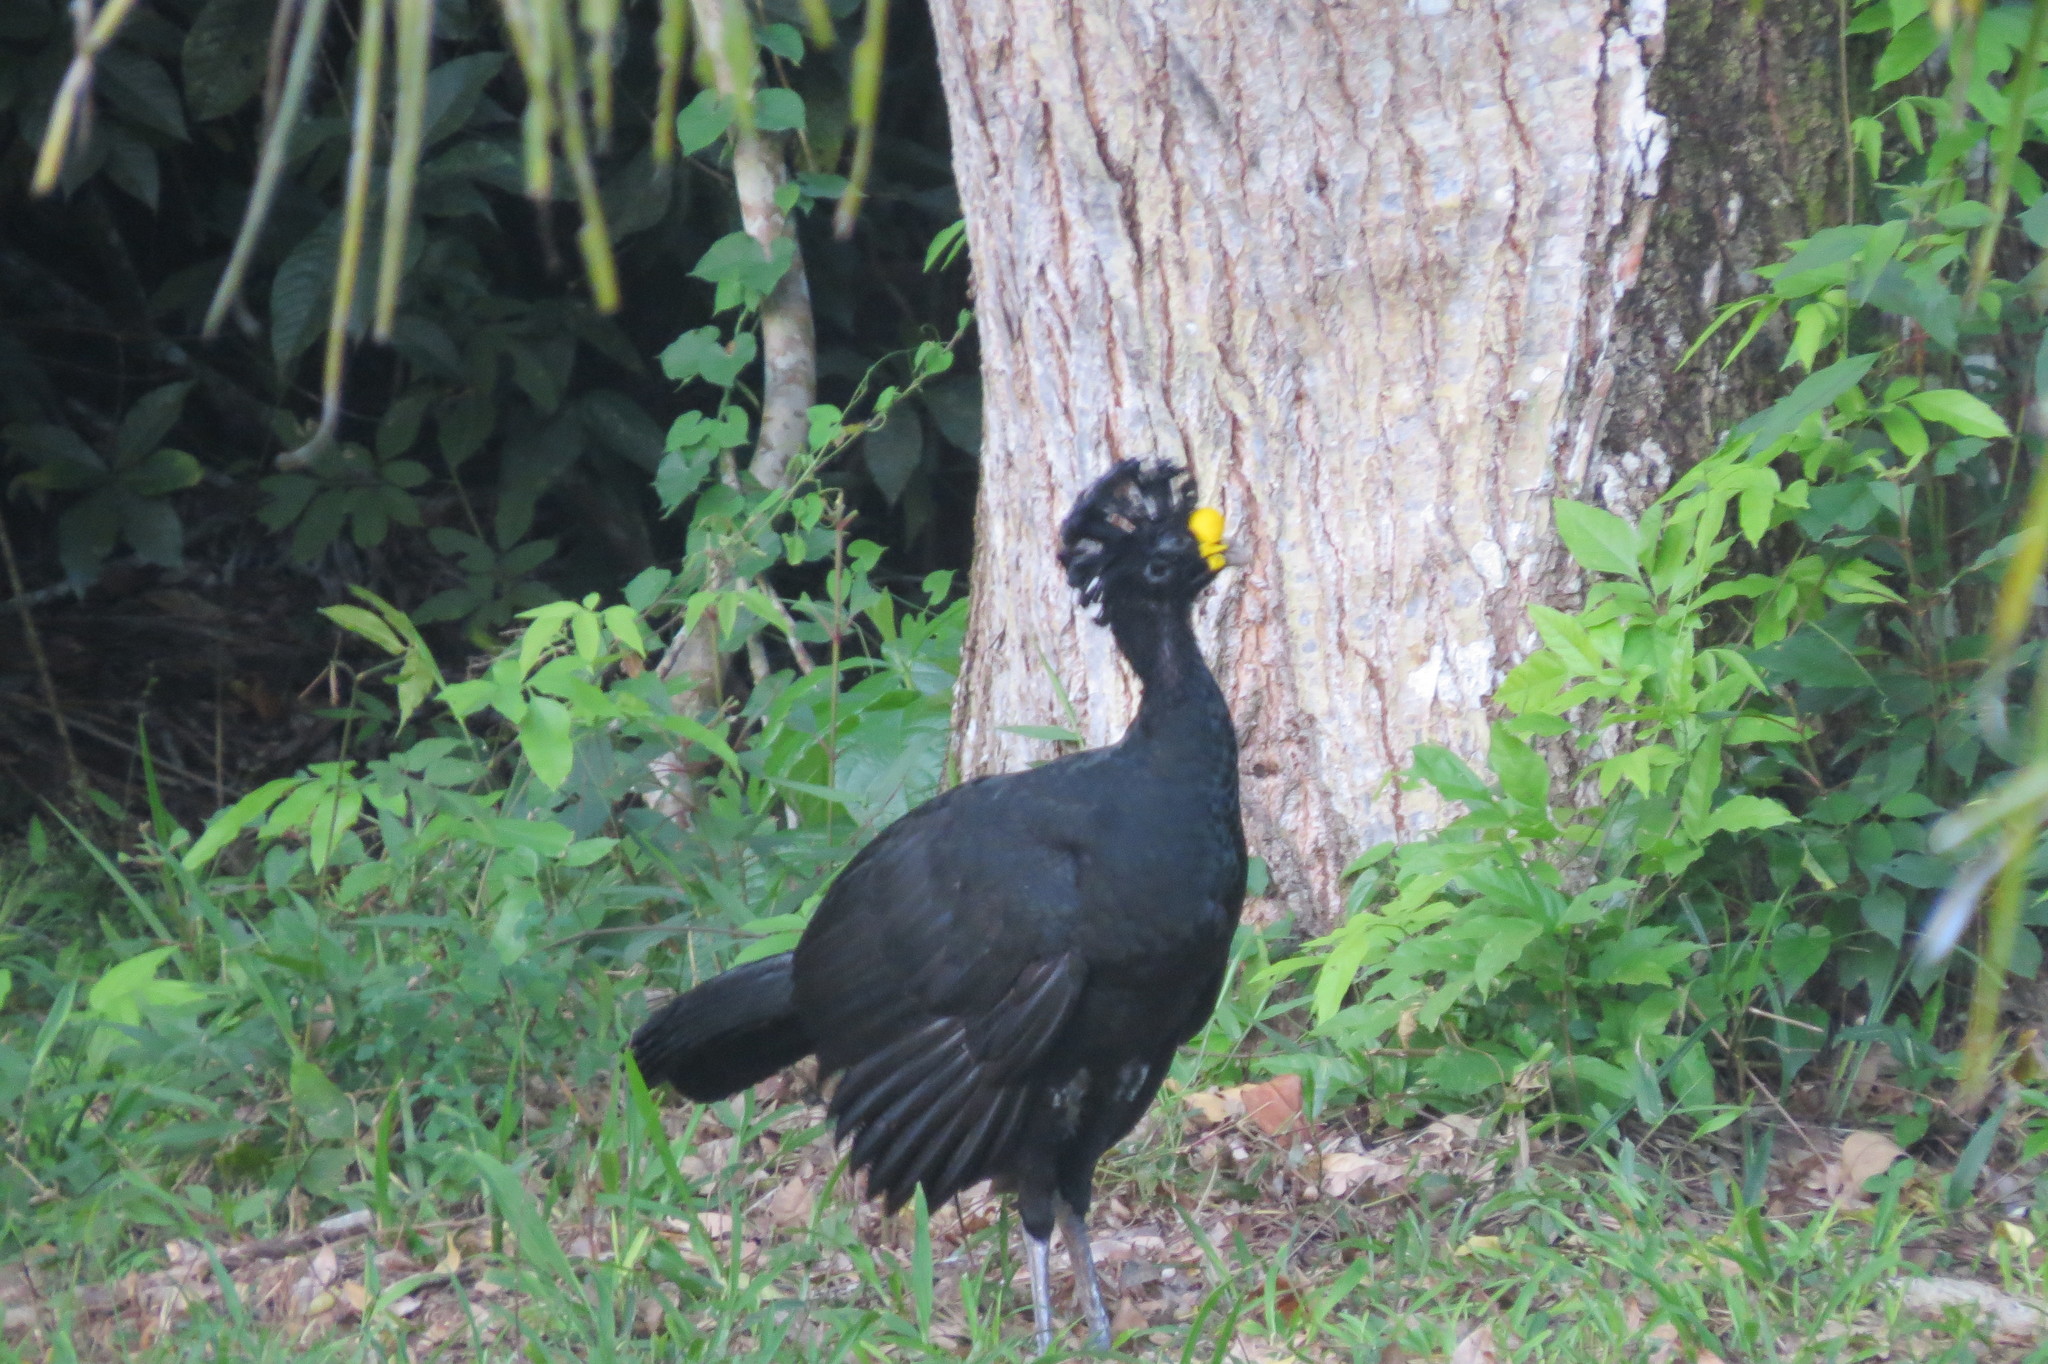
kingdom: Animalia
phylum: Chordata
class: Aves
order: Galliformes
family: Cracidae
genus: Crax
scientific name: Crax rubra
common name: Great curassow
